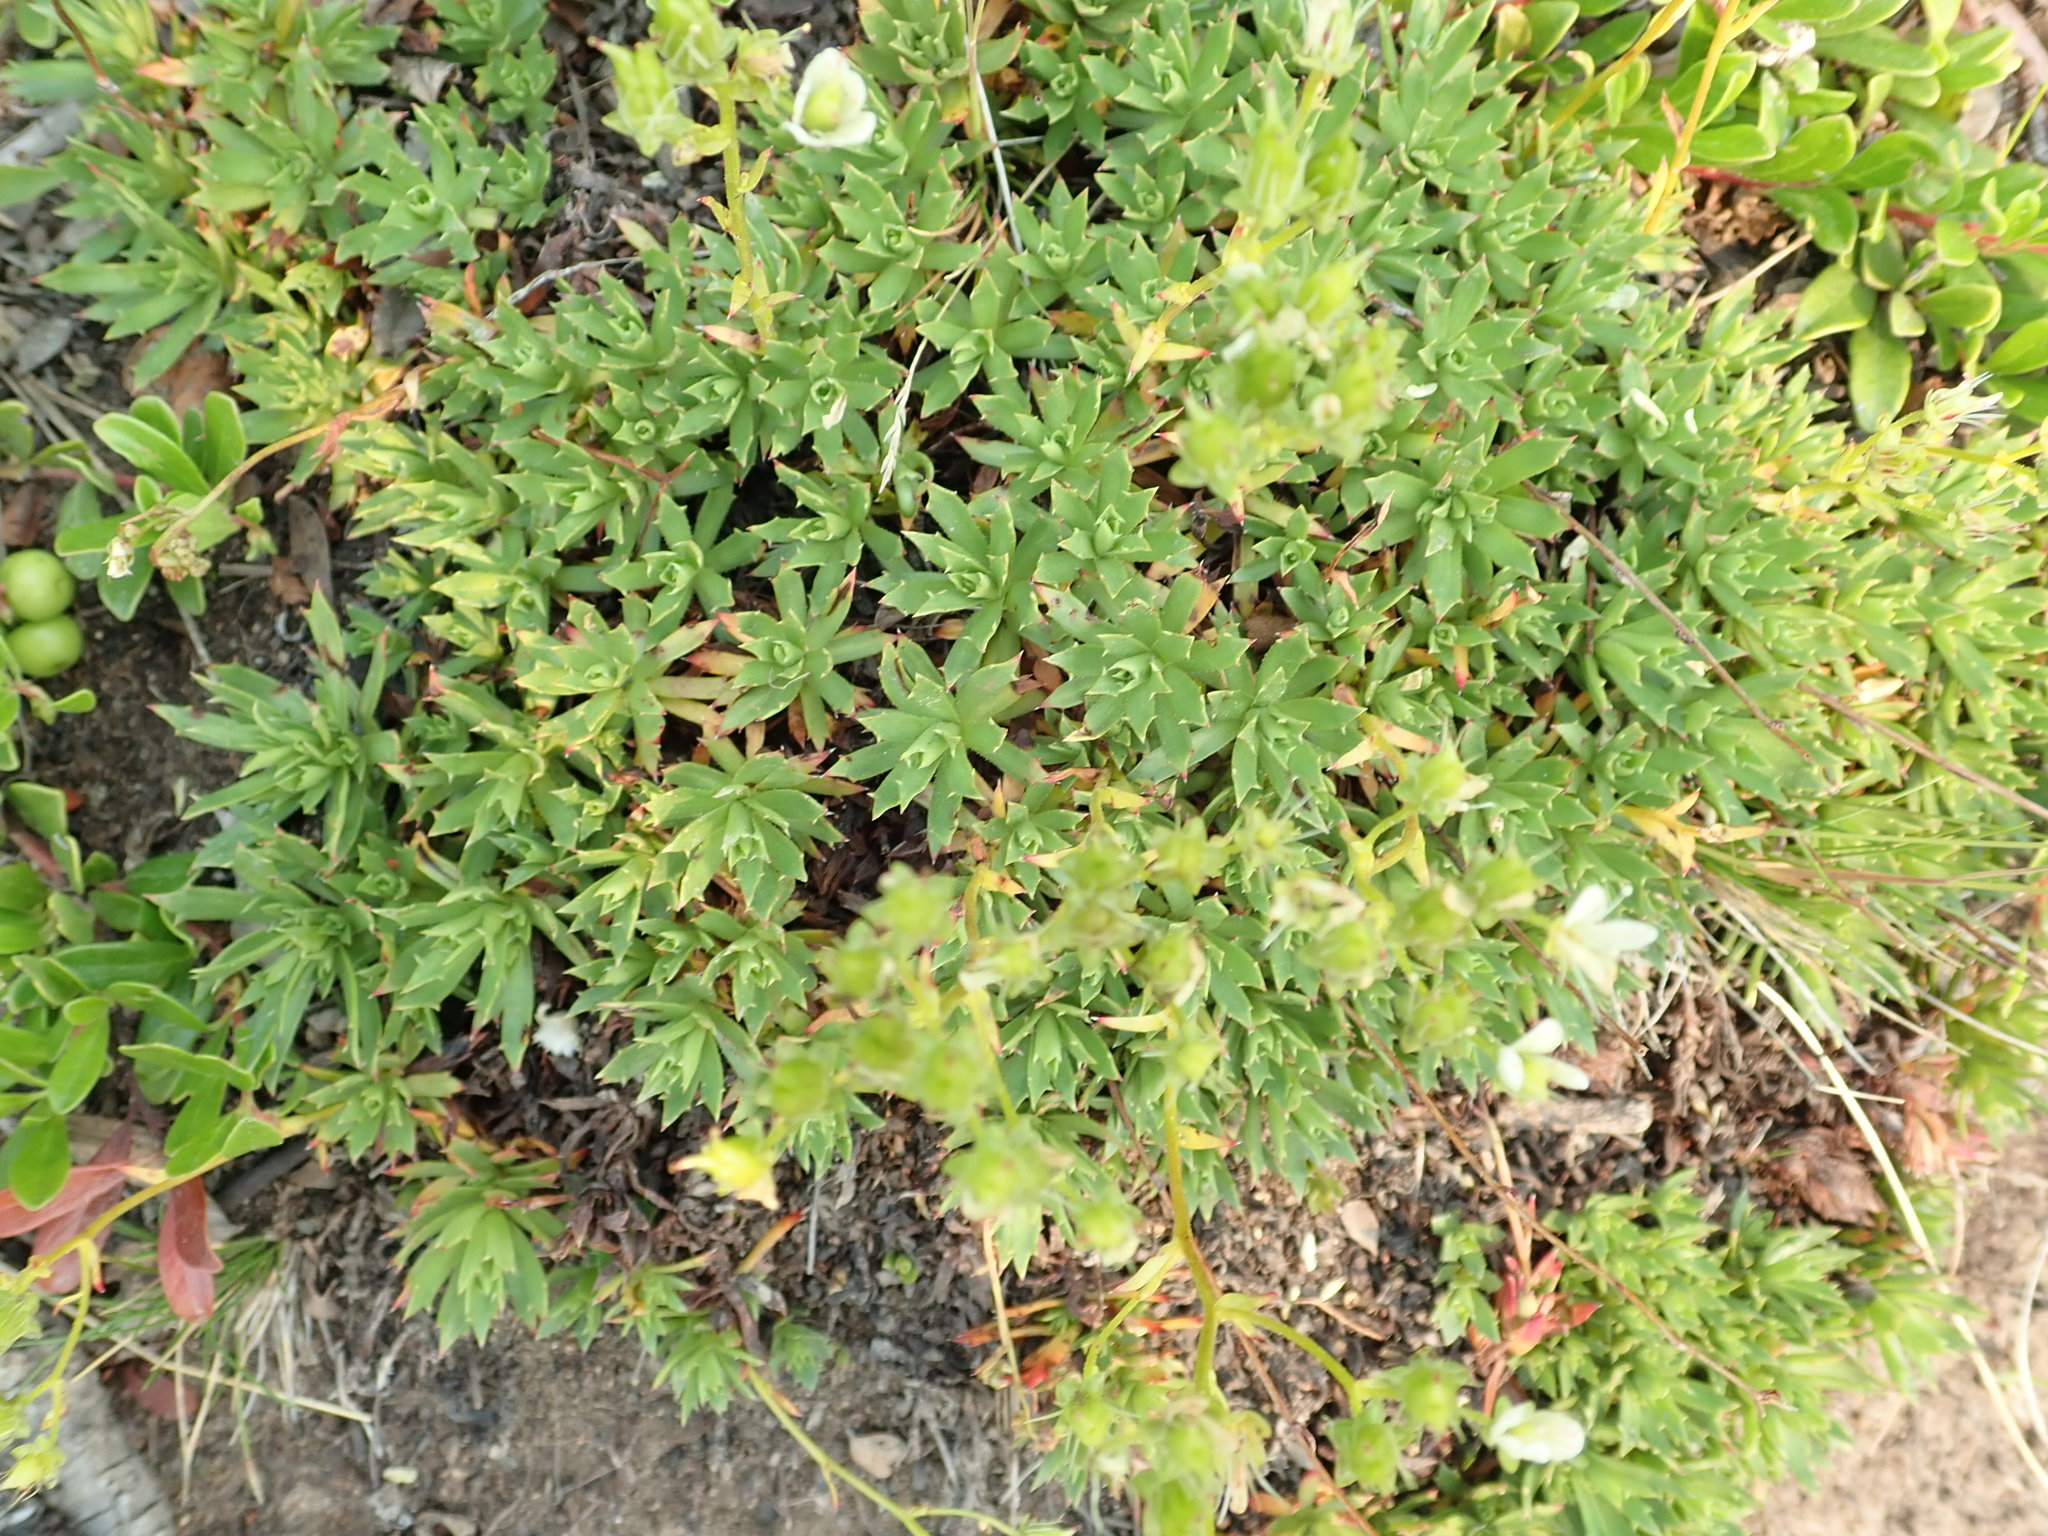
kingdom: Plantae
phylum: Tracheophyta
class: Magnoliopsida
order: Saxifragales
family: Saxifragaceae
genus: Saxifraga
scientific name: Saxifraga tricuspidata
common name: Prickly saxifrage
